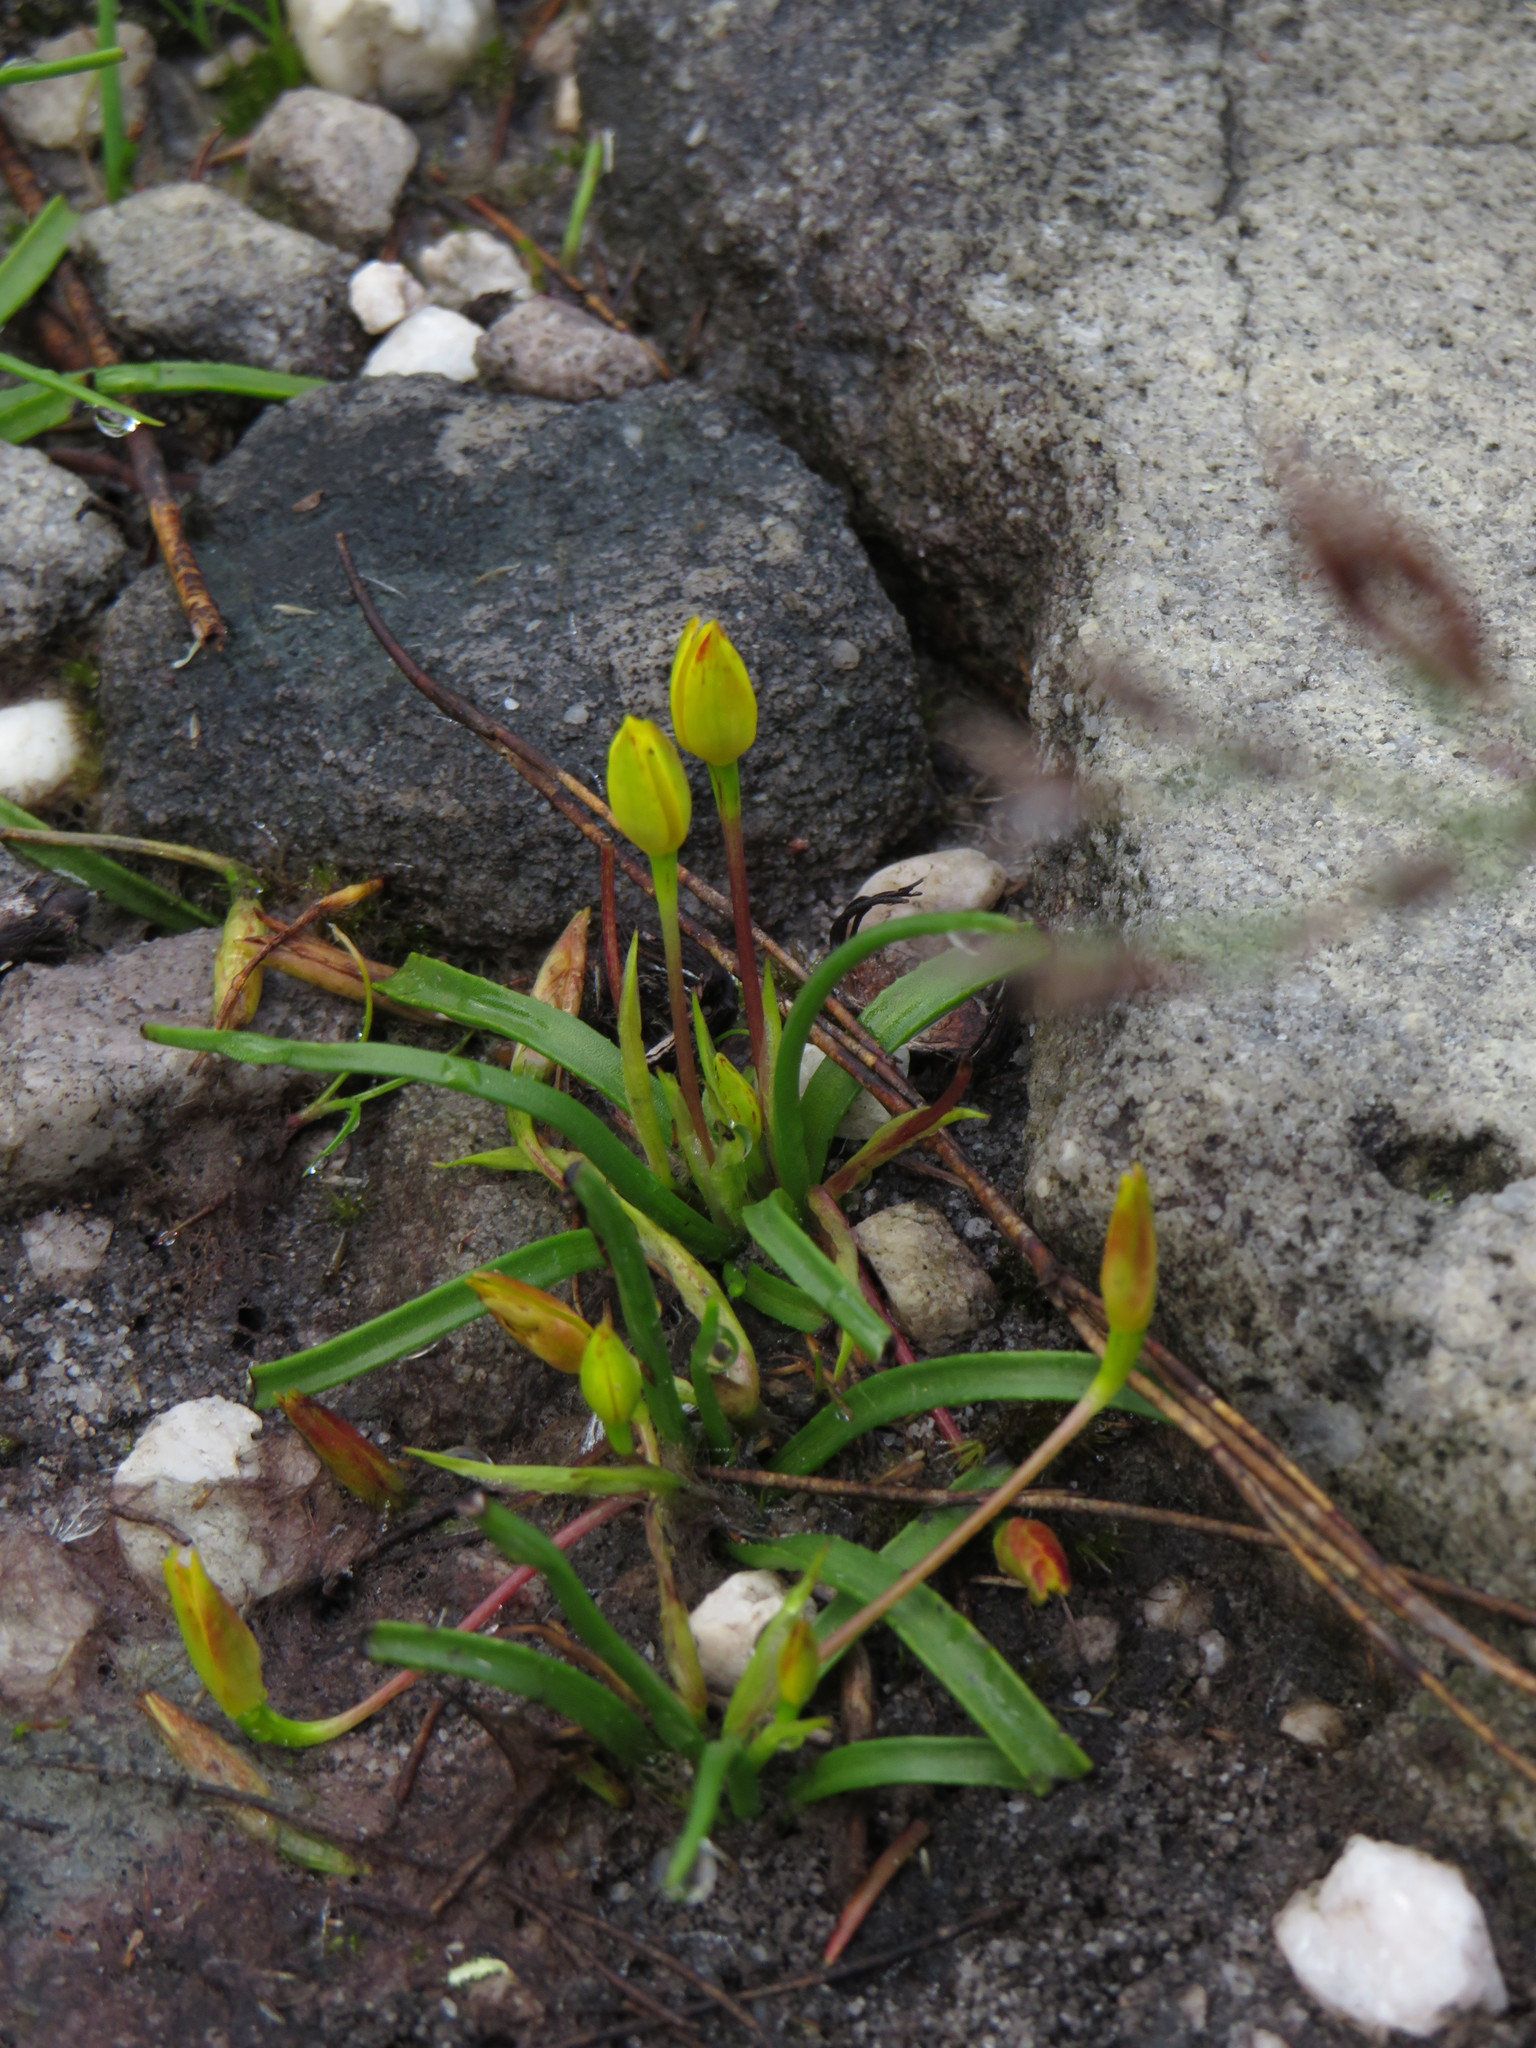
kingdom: Plantae
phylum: Tracheophyta
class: Liliopsida
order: Asparagales
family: Hypoxidaceae
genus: Pauridia
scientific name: Pauridia monticola
